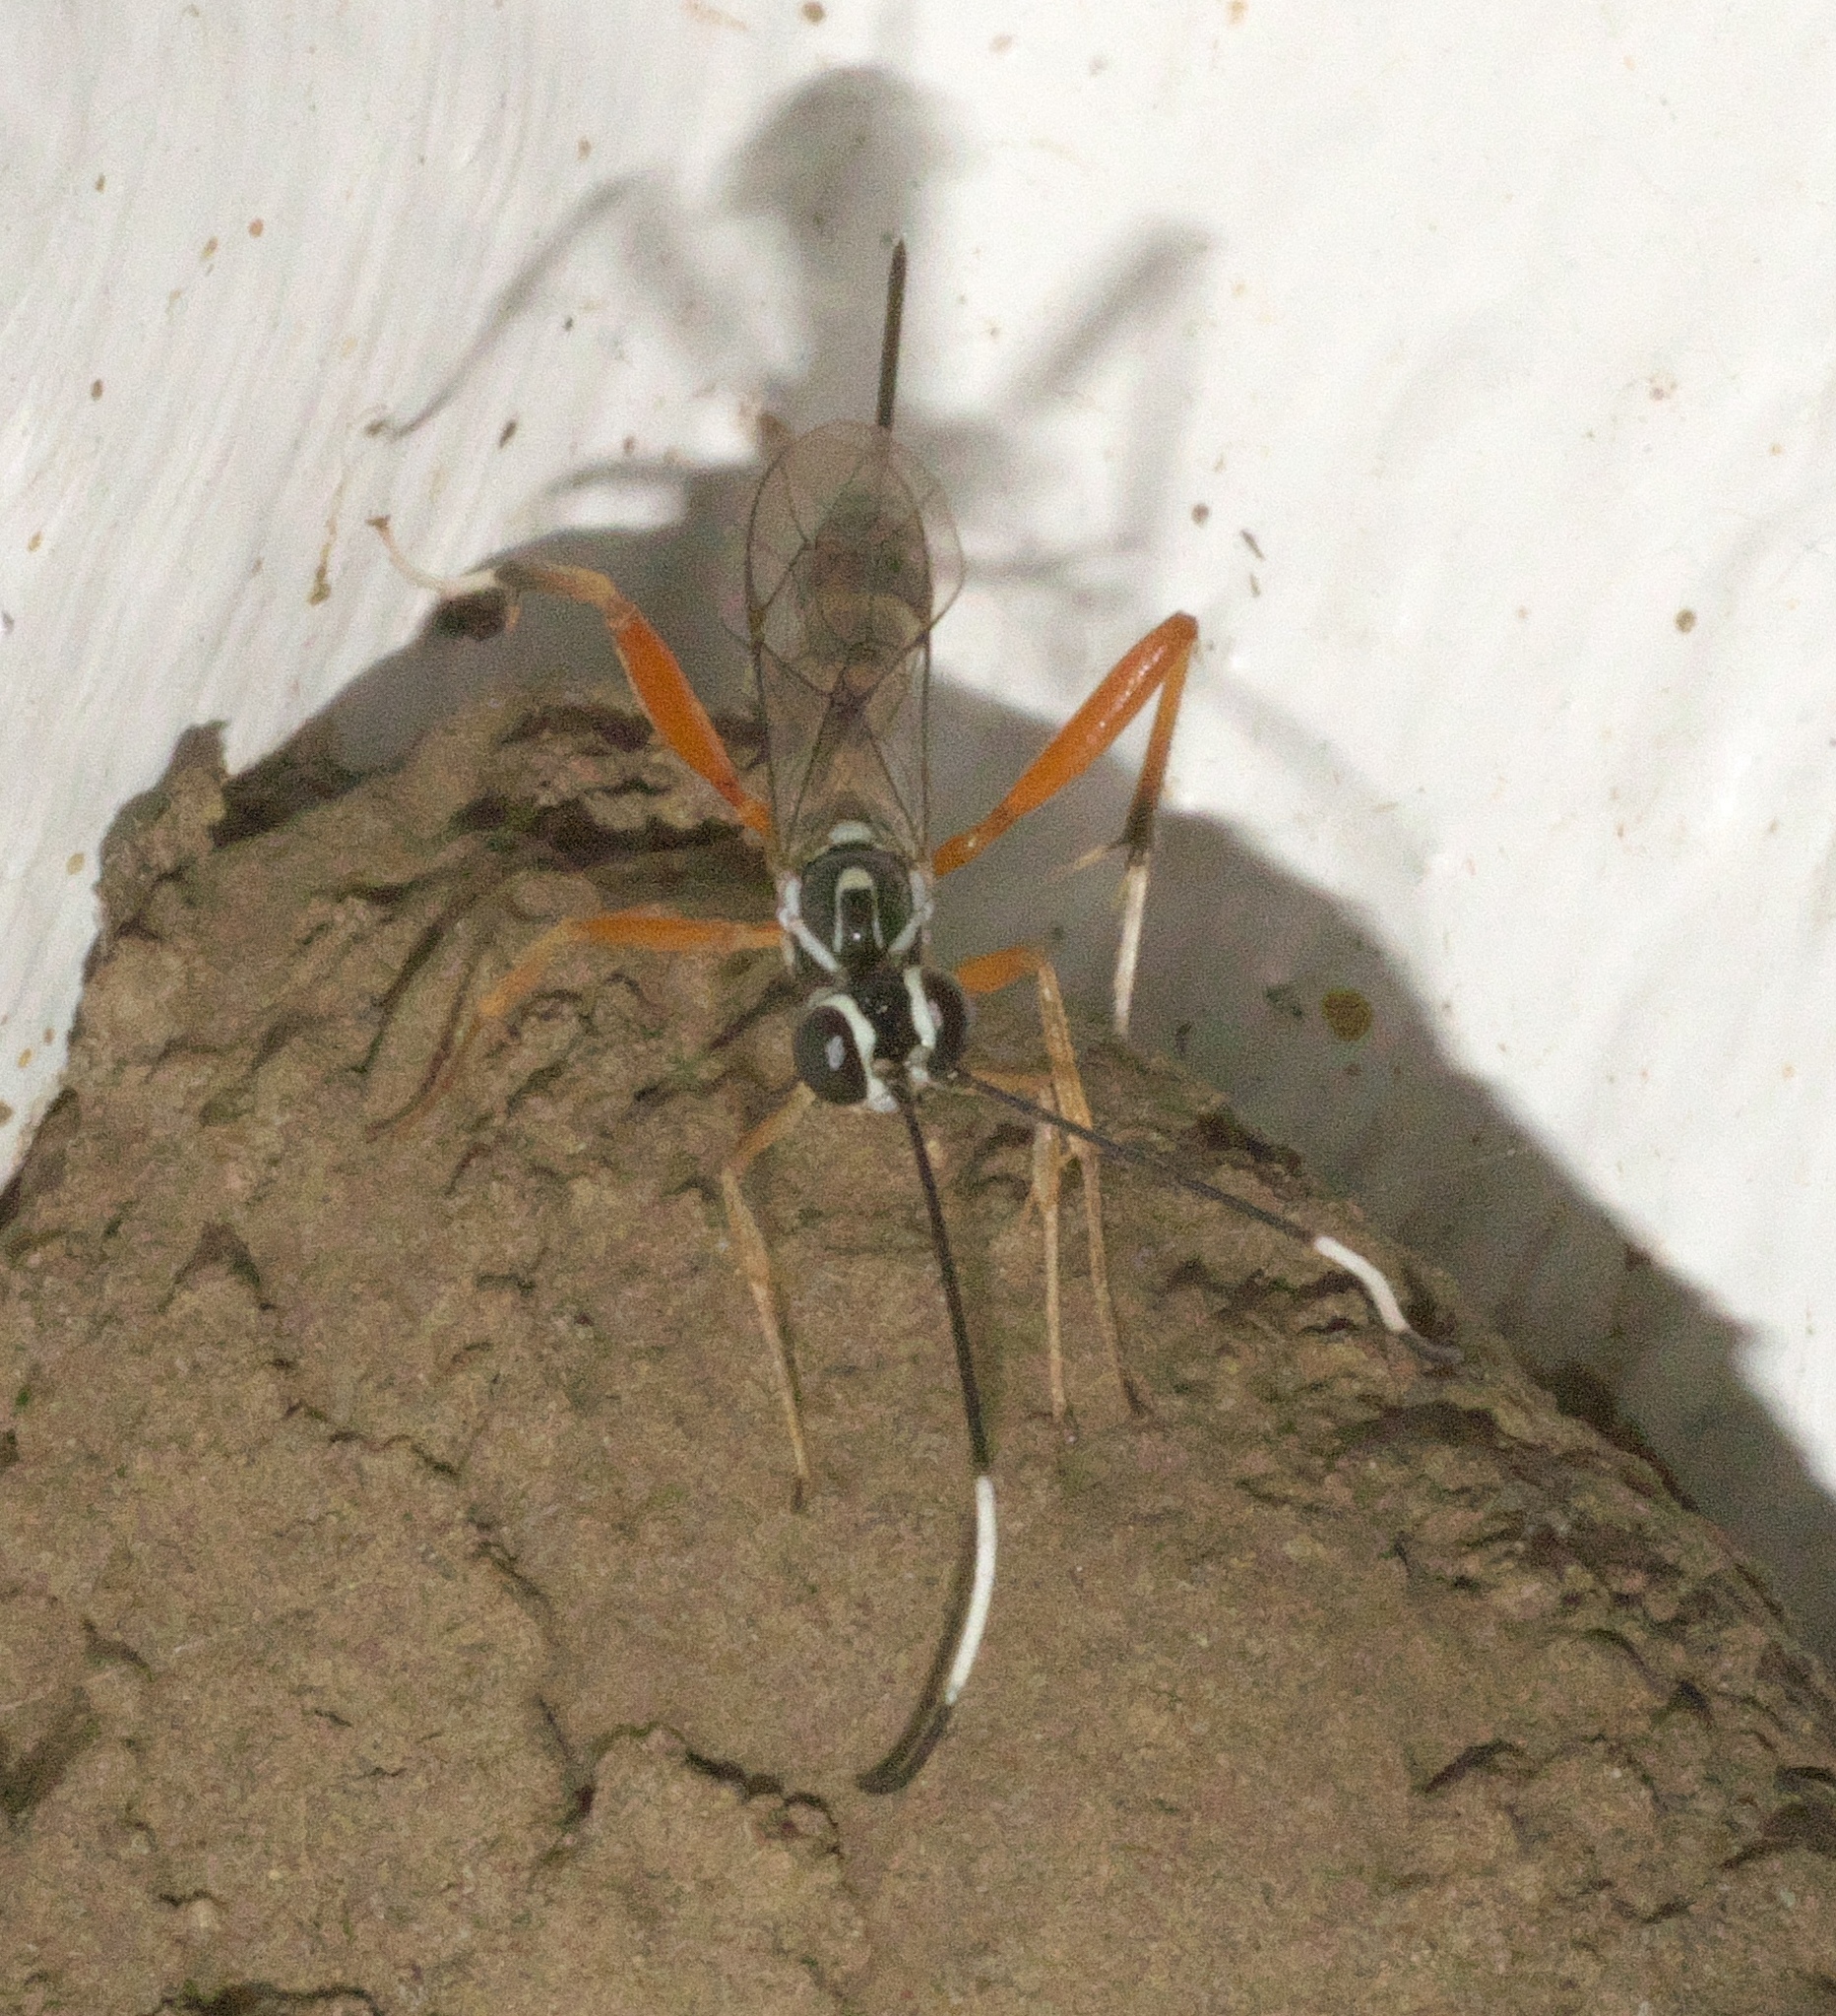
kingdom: Animalia
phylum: Arthropoda
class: Insecta
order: Hymenoptera
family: Ichneumonidae
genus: Messatoporus
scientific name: Messatoporus discoidalis
